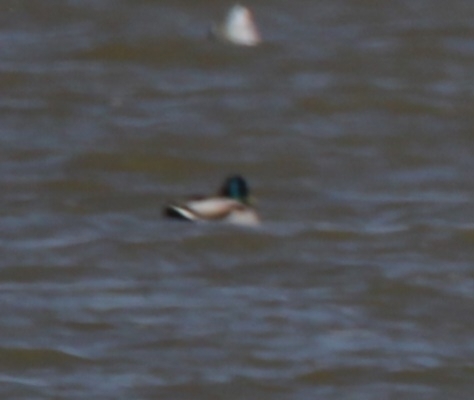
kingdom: Animalia
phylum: Chordata
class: Aves
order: Anseriformes
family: Anatidae
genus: Anas
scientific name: Anas platyrhynchos
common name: Mallard
